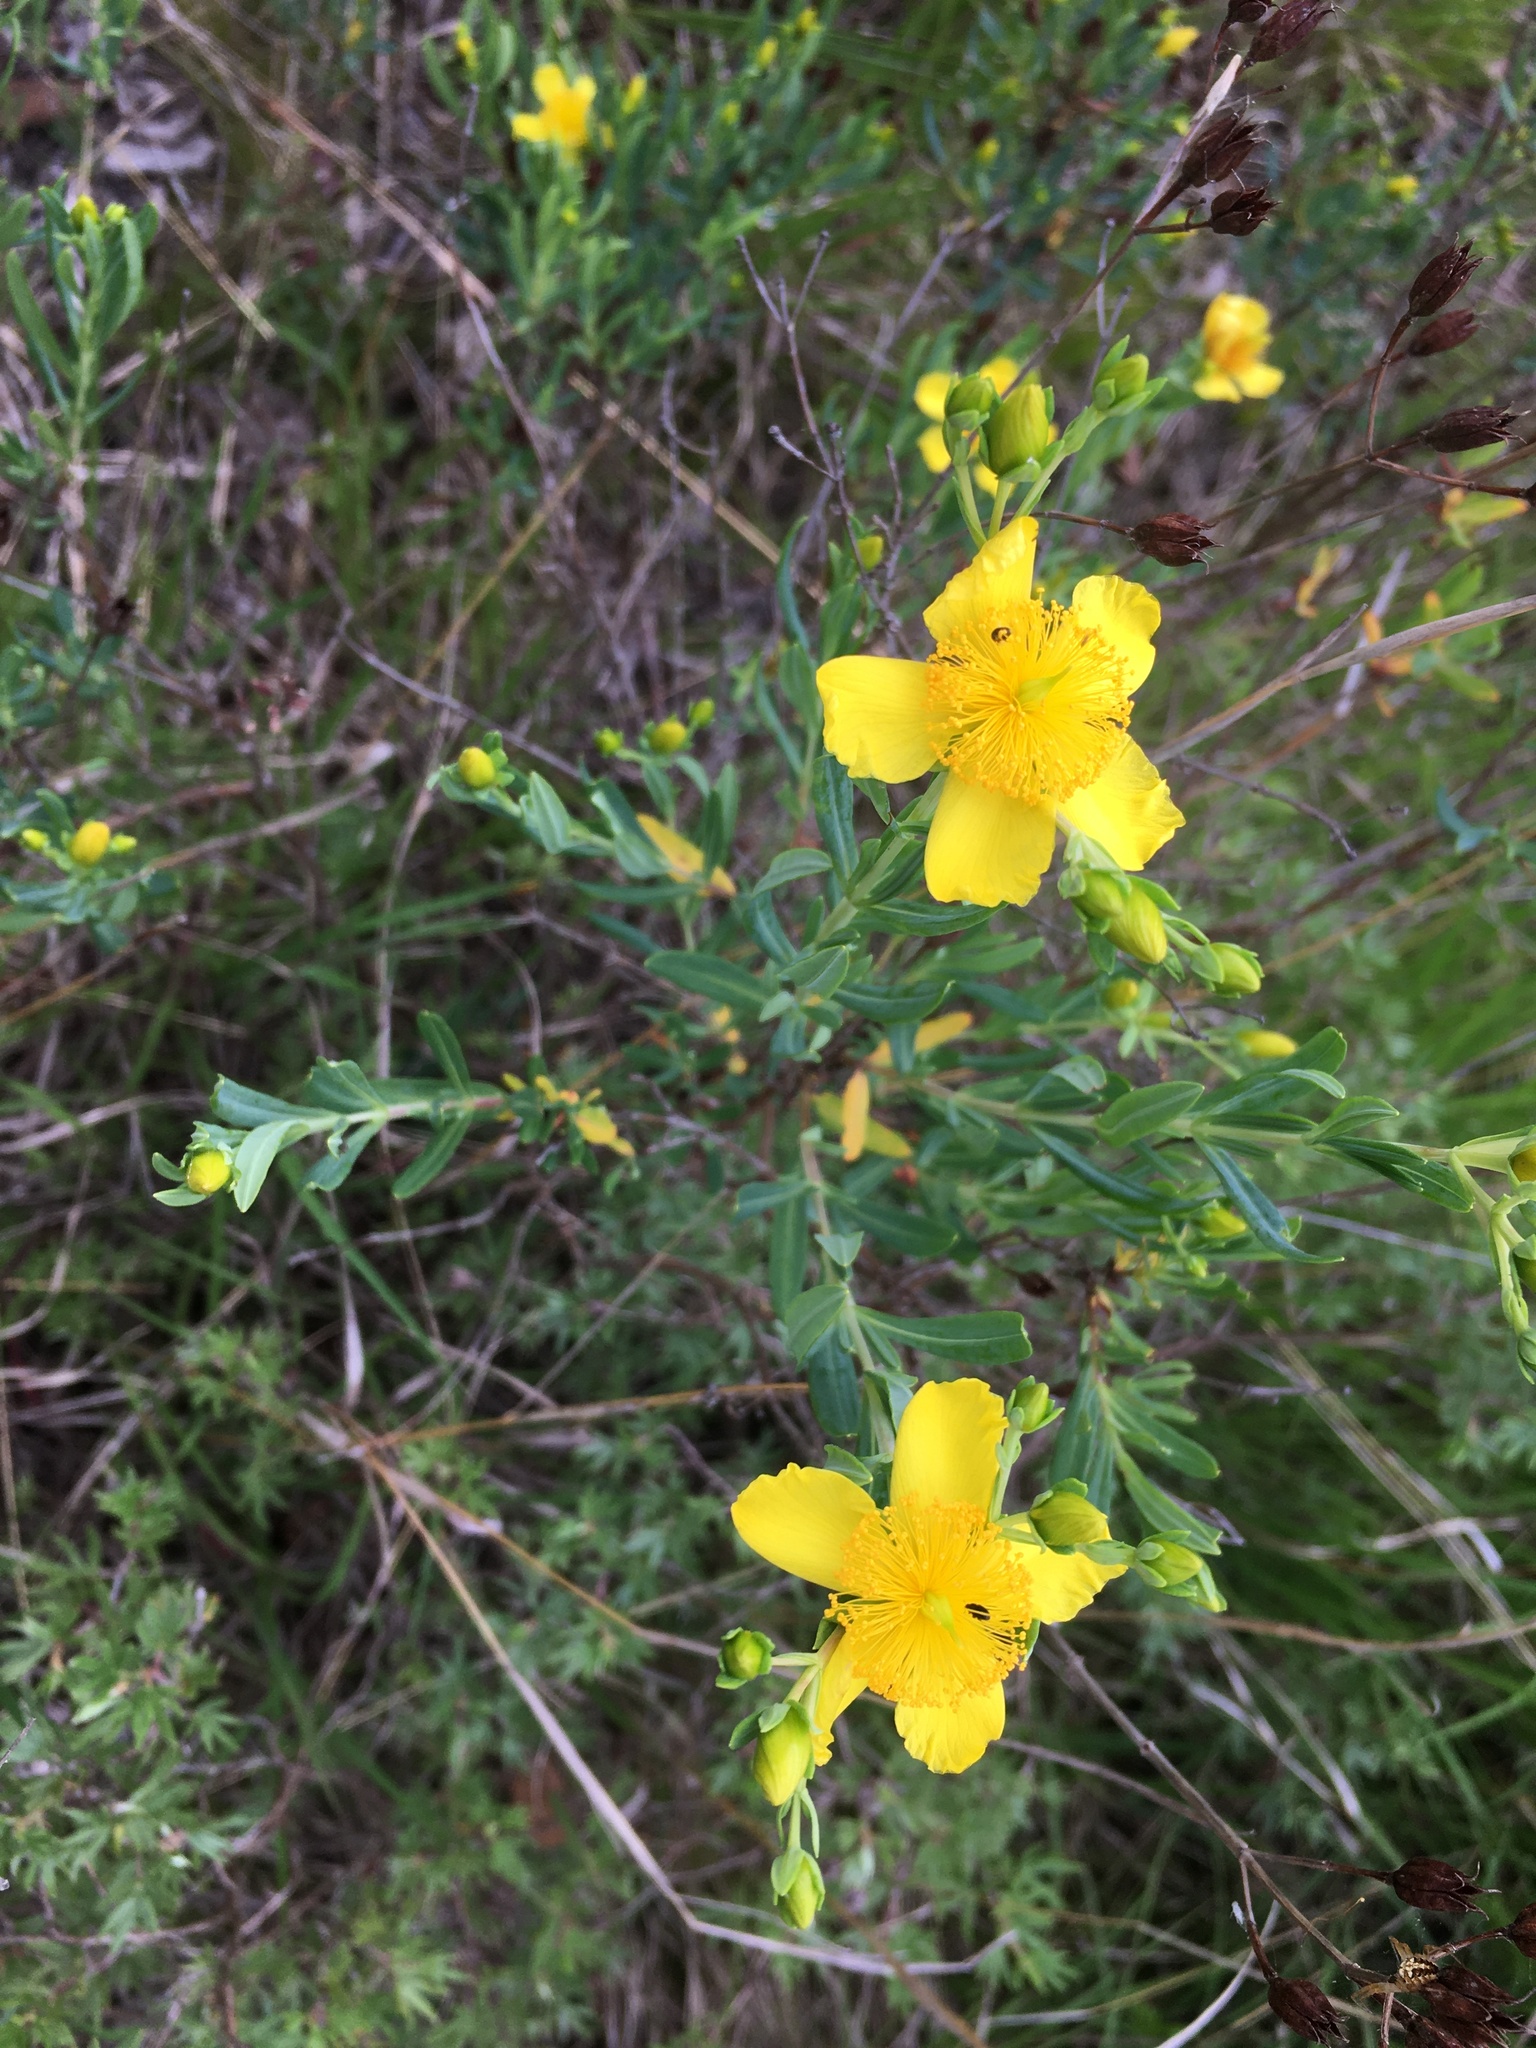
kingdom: Plantae
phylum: Tracheophyta
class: Magnoliopsida
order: Malpighiales
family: Hypericaceae
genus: Hypericum
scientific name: Hypericum kalmianum
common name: Kalm's st. john's-wort
